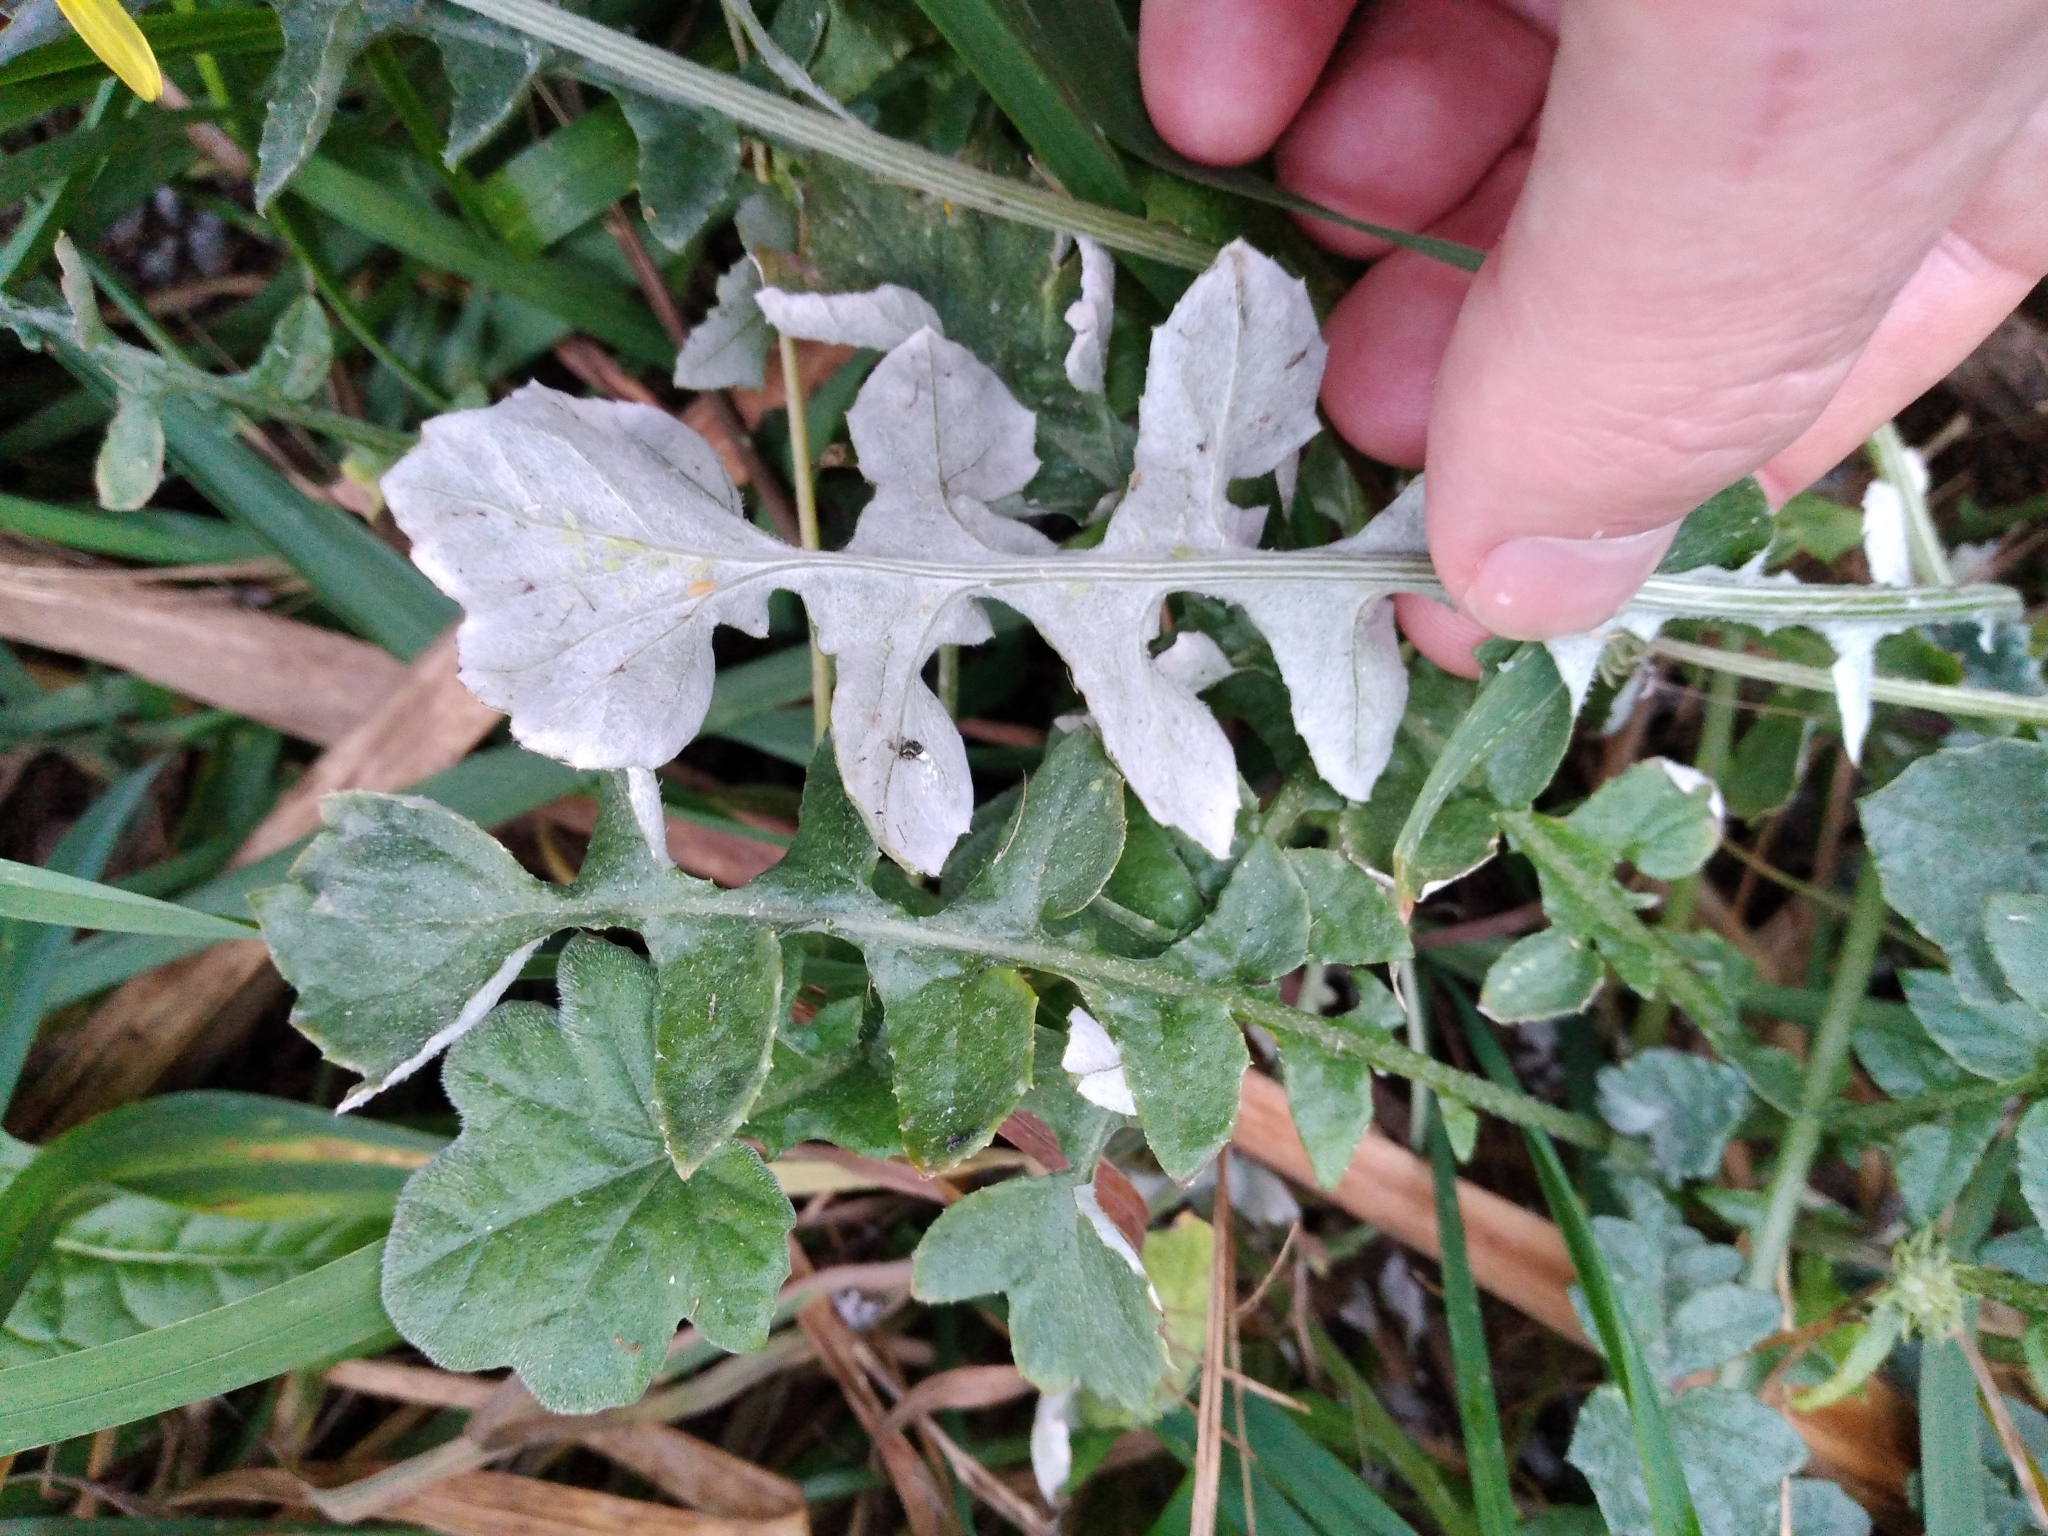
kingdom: Plantae
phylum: Tracheophyta
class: Magnoliopsida
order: Asterales
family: Asteraceae
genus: Arctotheca
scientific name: Arctotheca calendula
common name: Capeweed
